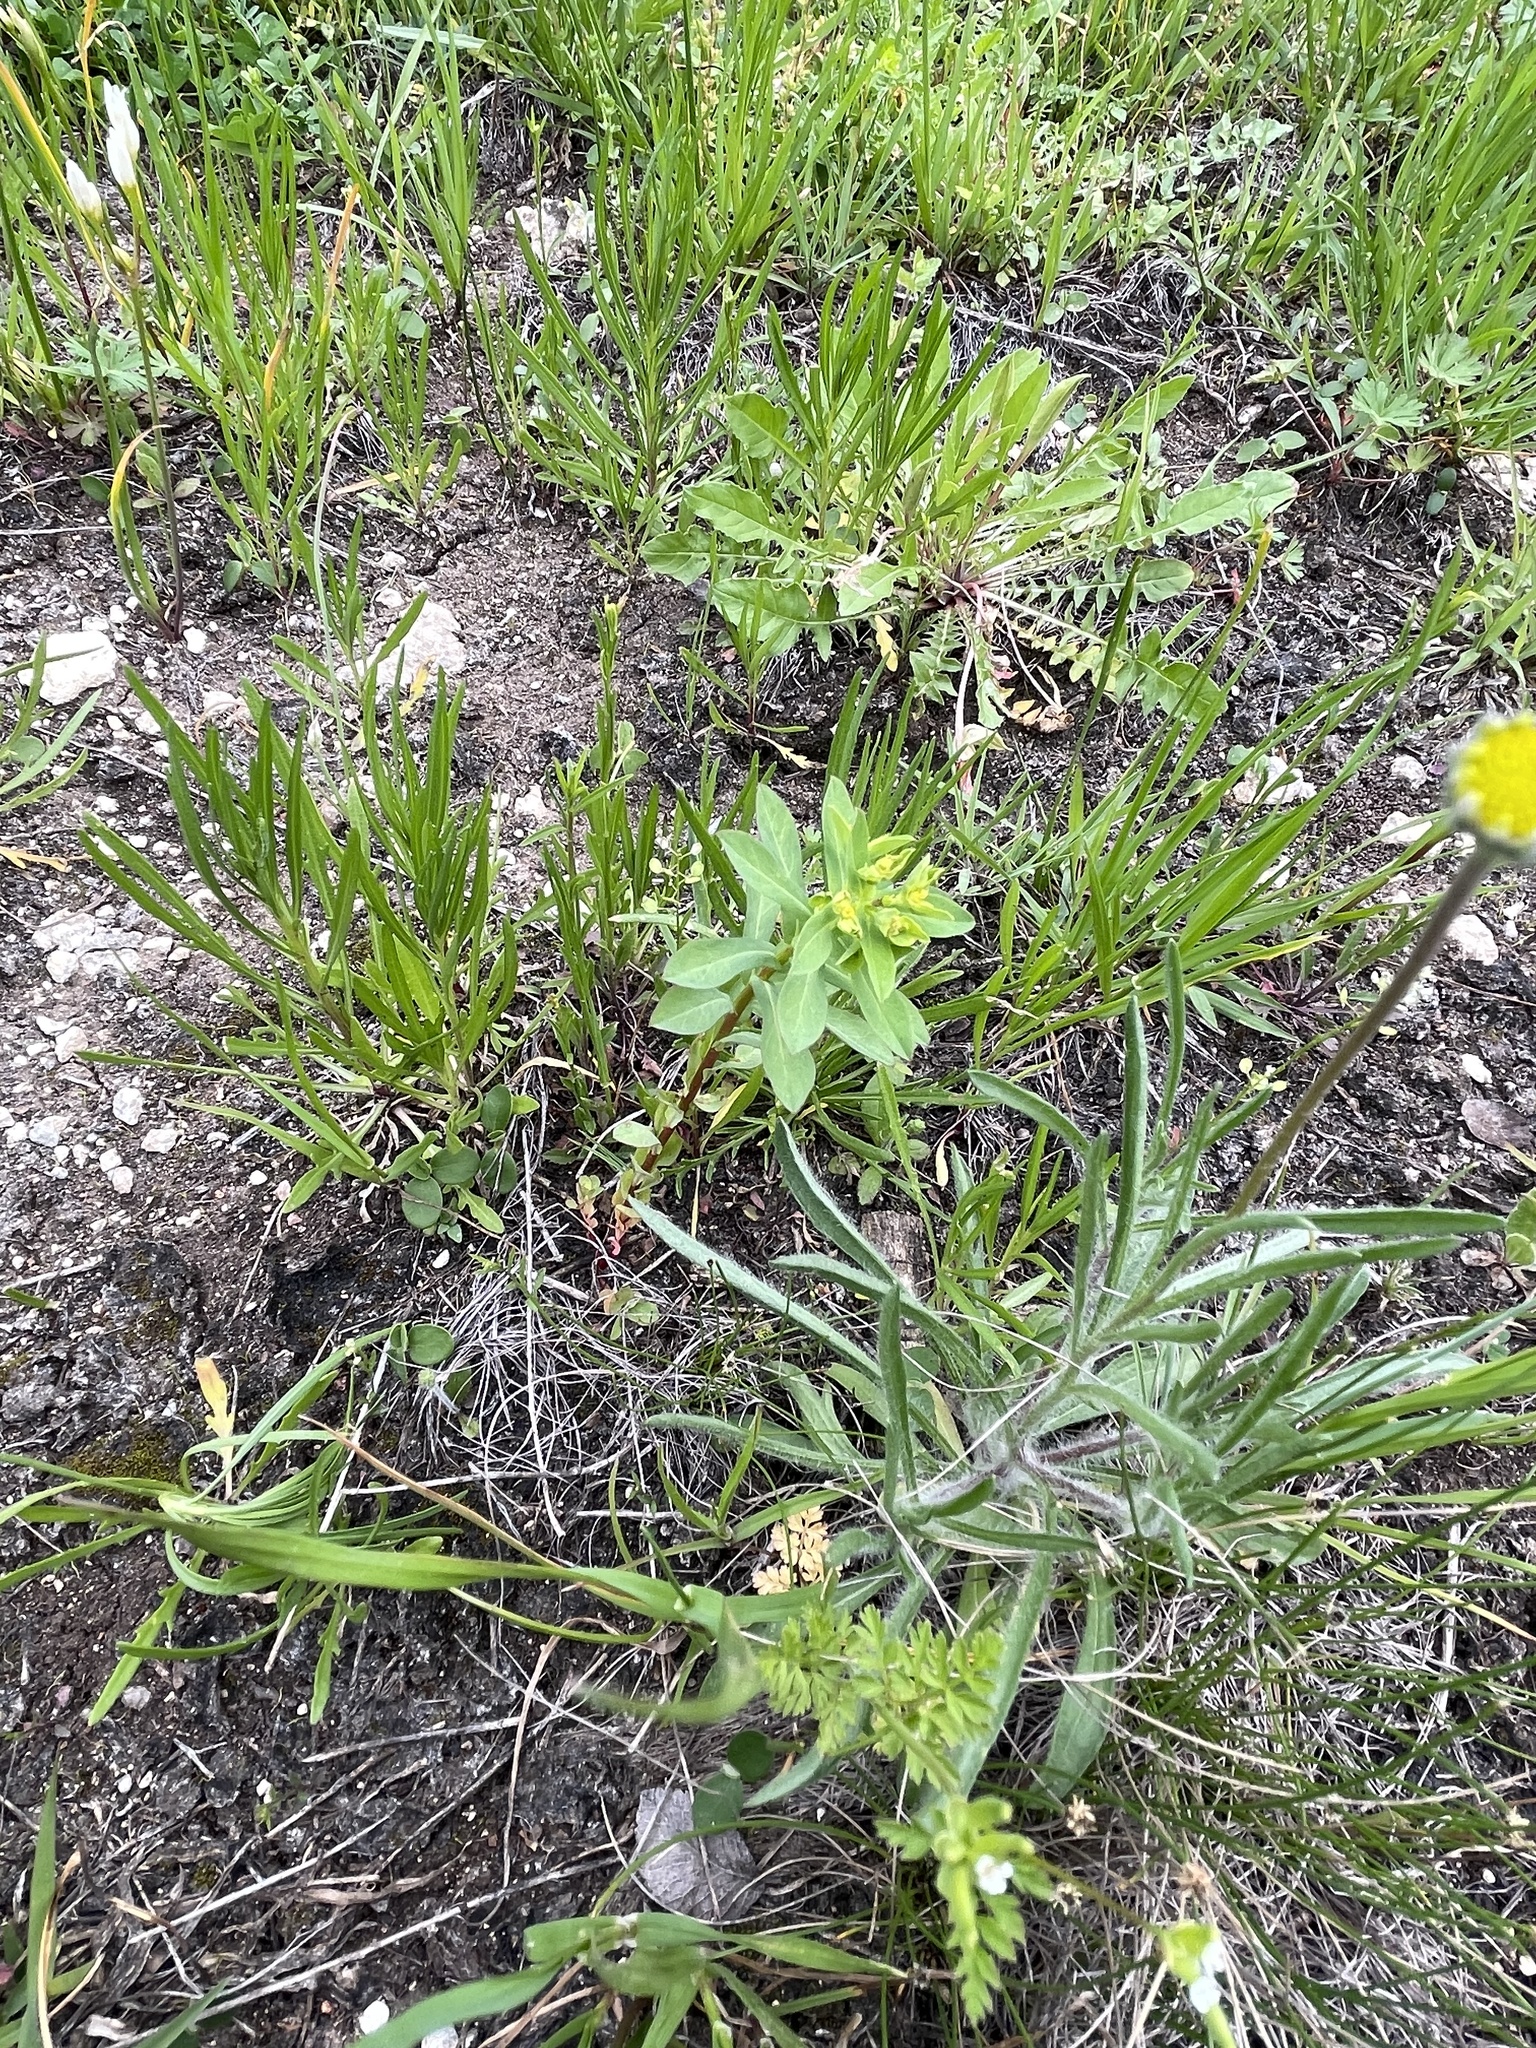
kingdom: Plantae
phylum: Tracheophyta
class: Magnoliopsida
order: Malpighiales
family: Euphorbiaceae
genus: Euphorbia
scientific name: Euphorbia spathulata
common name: Blunt spurge
